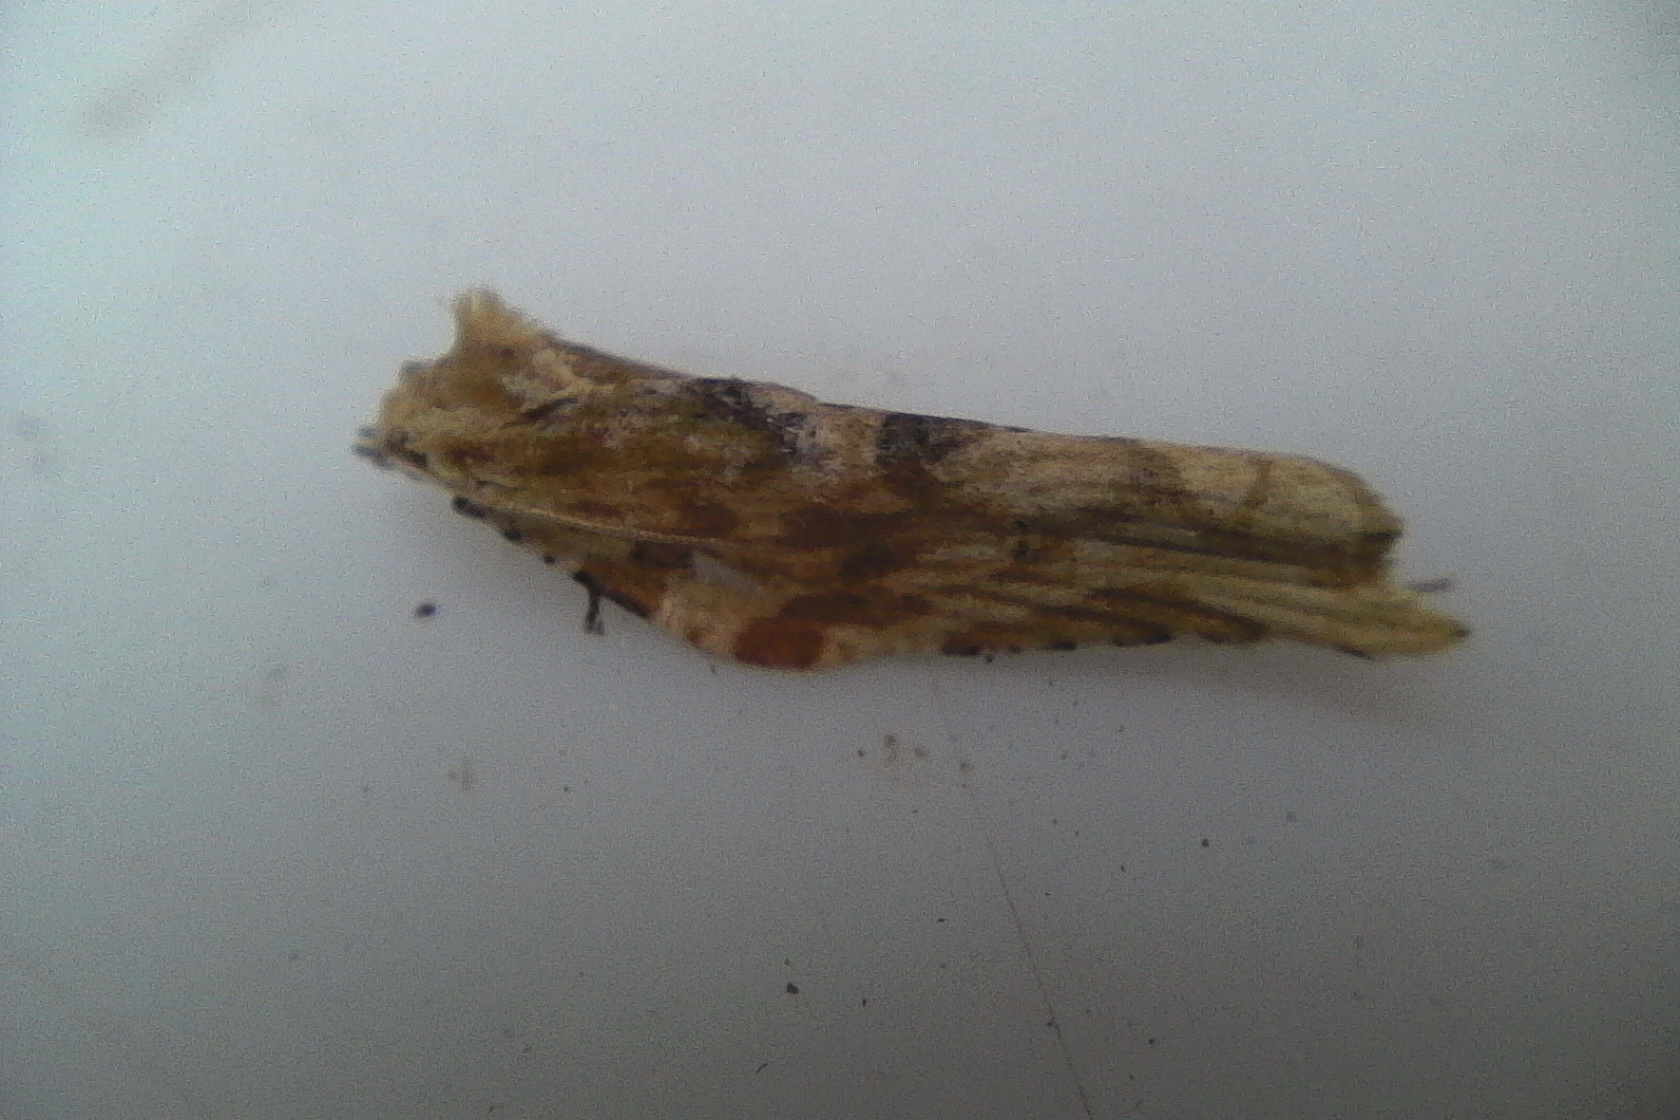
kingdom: Animalia
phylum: Arthropoda
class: Insecta
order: Lepidoptera
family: Tortricidae
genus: Epalxiphora
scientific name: Epalxiphora axenana
